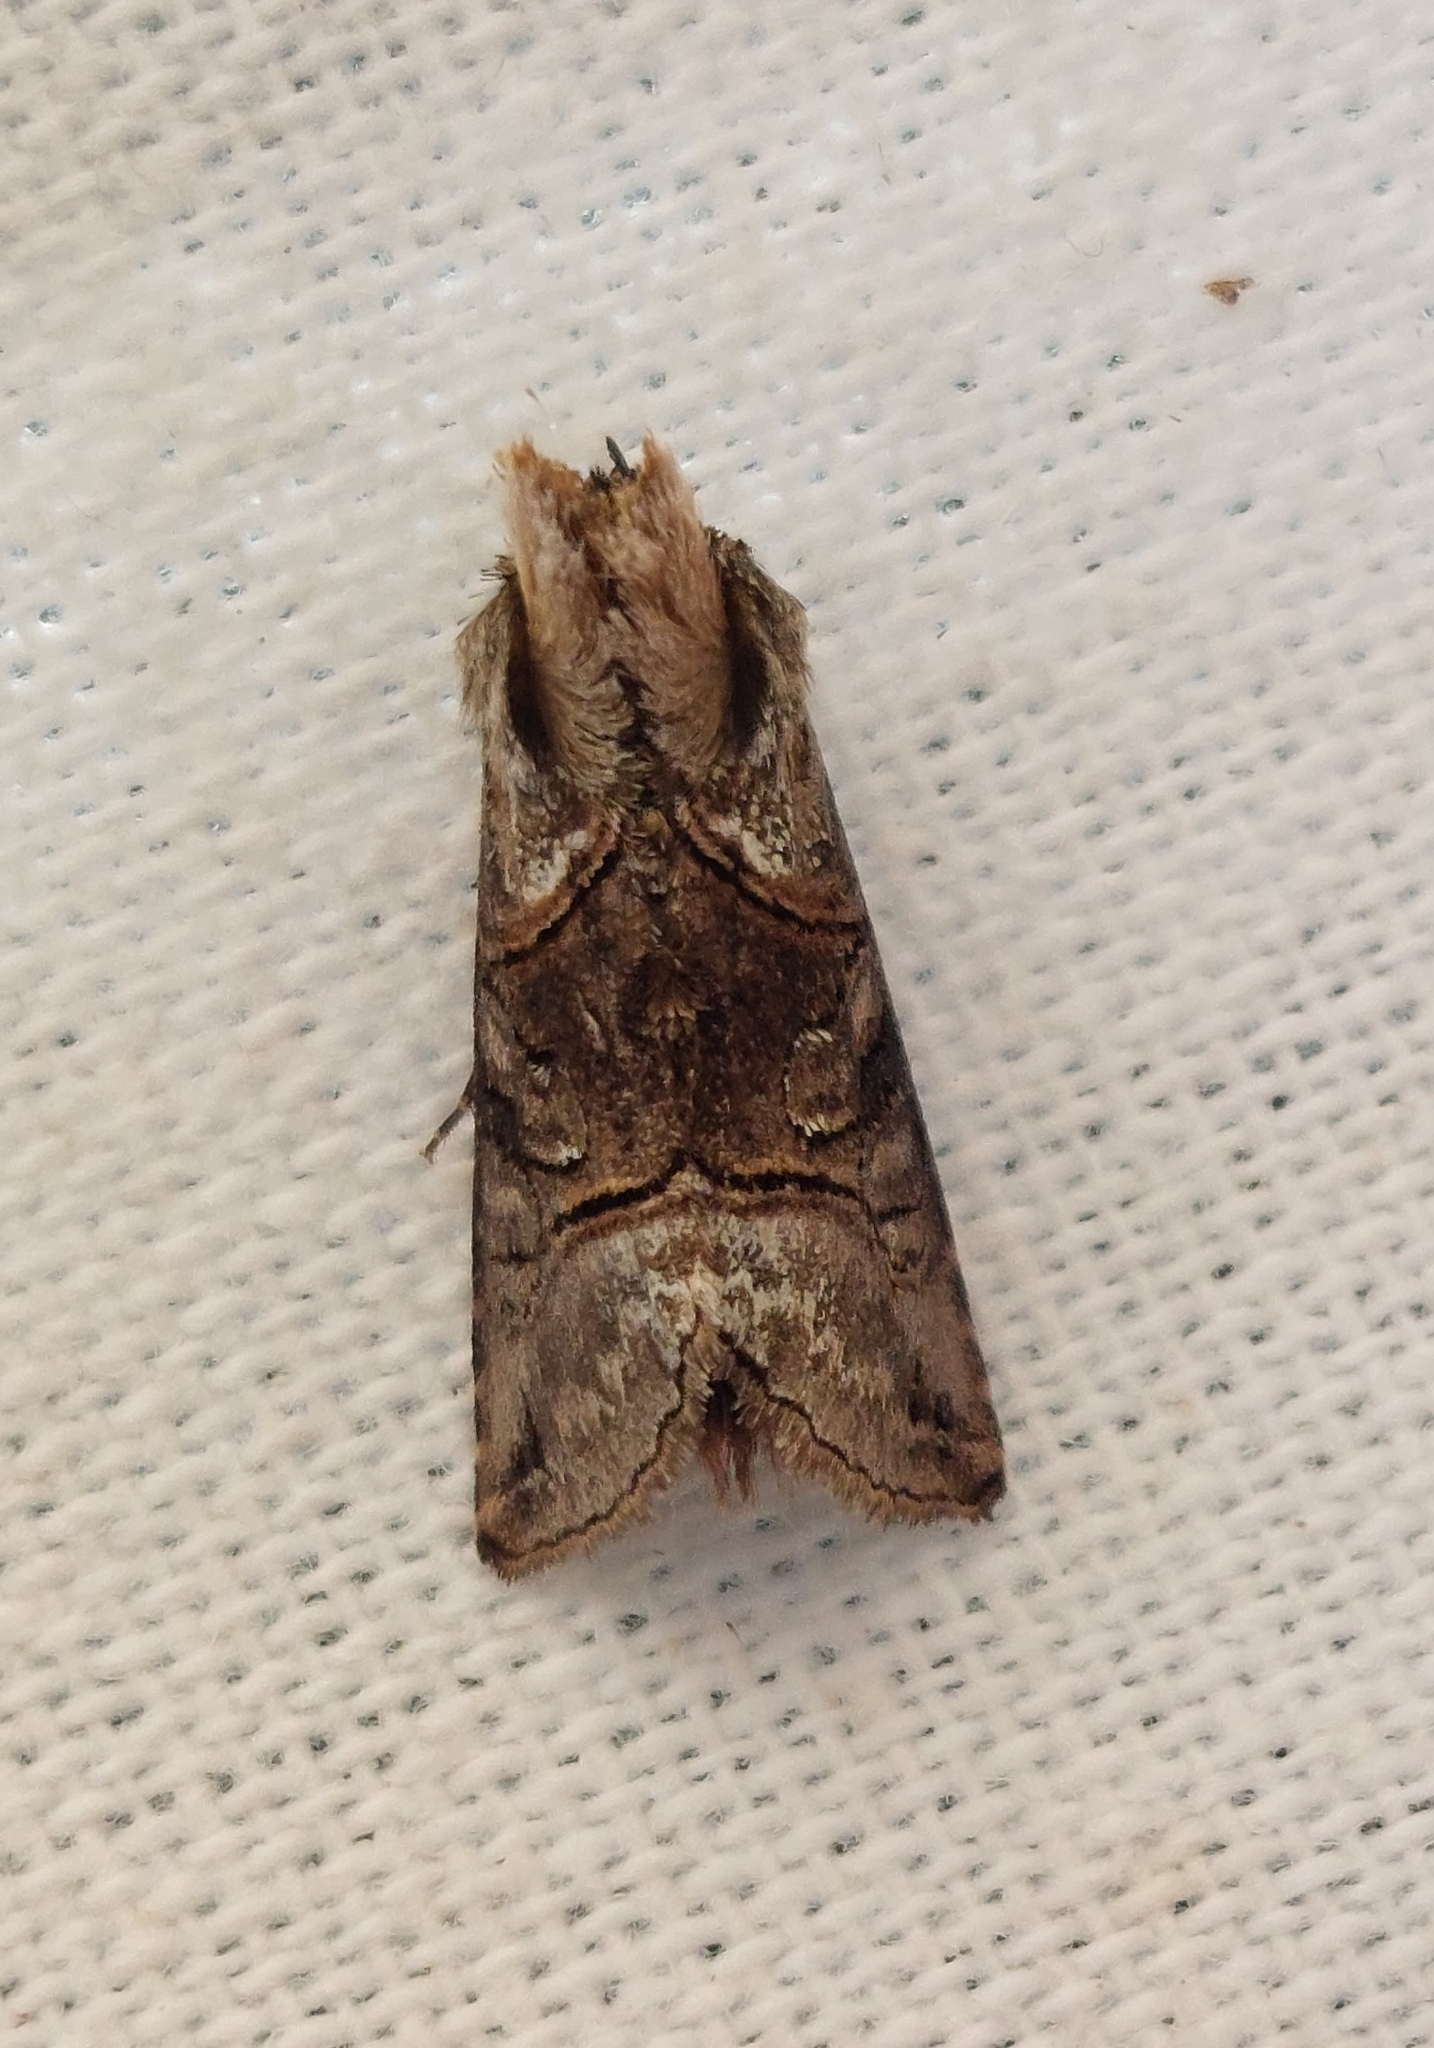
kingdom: Animalia
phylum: Arthropoda
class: Insecta
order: Lepidoptera
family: Noctuidae
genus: Abrostola
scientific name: Abrostola tripartita
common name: Spectacle
